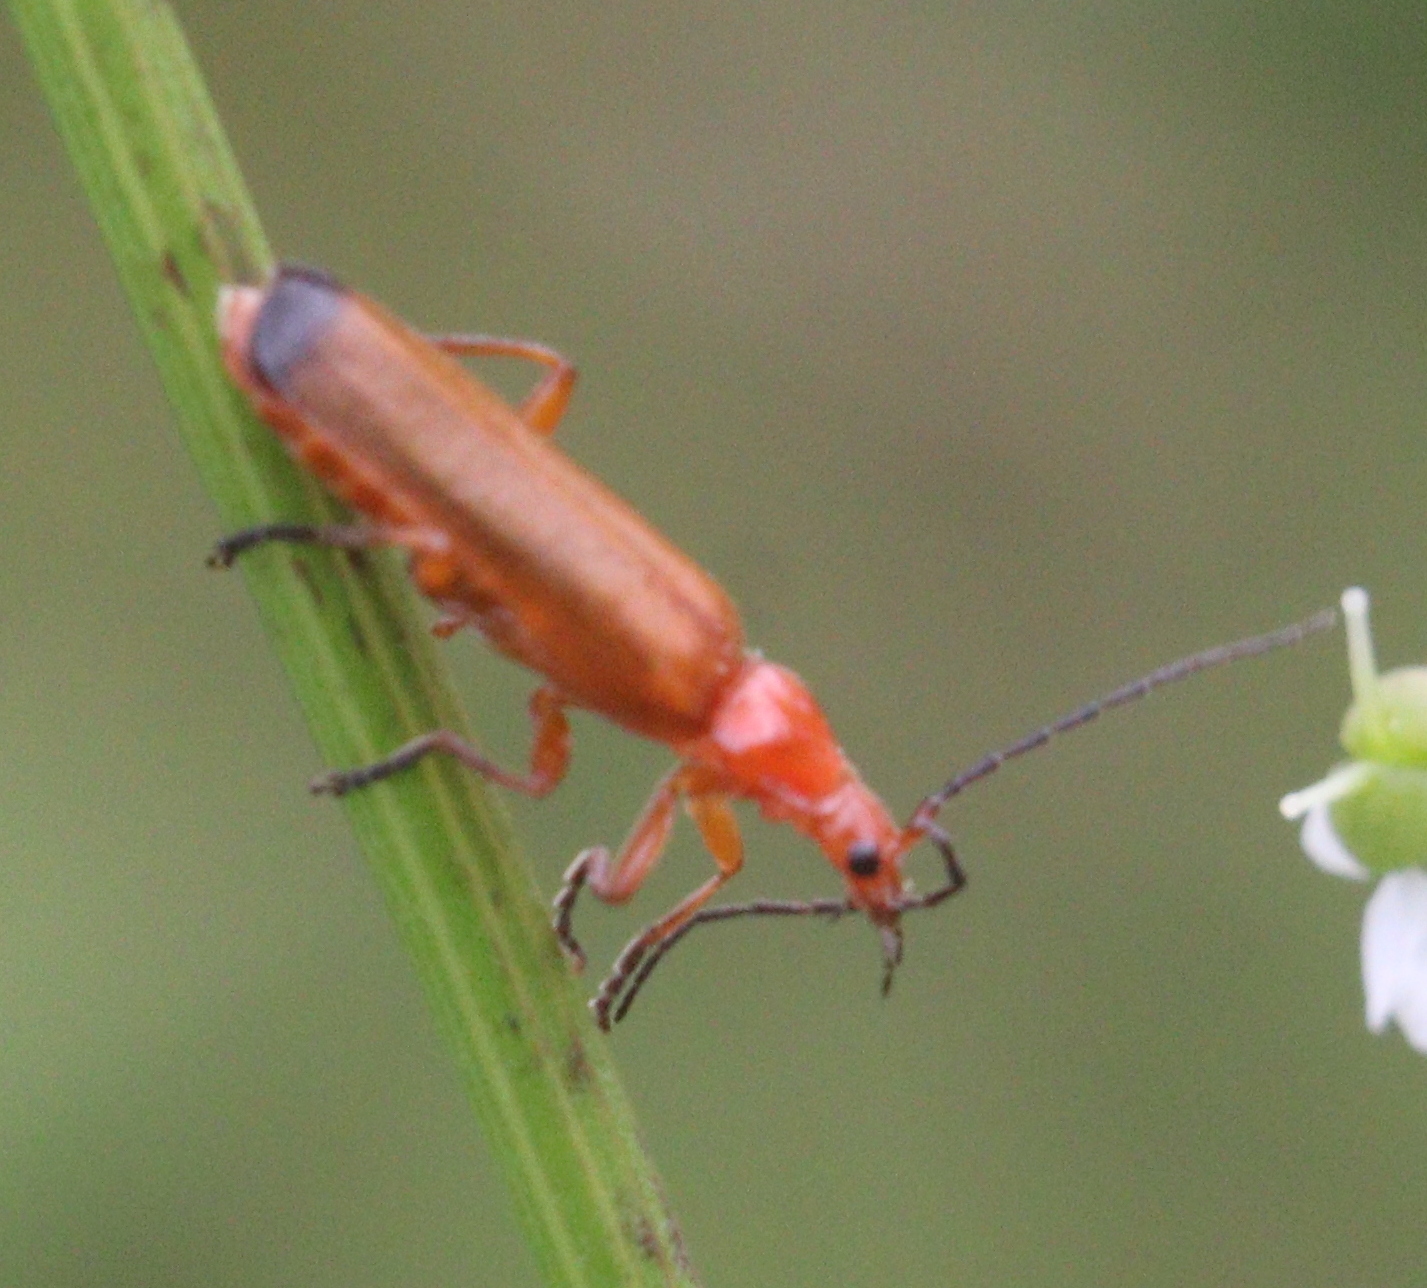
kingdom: Animalia
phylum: Arthropoda
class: Insecta
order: Coleoptera
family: Cantharidae
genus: Rhagonycha
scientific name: Rhagonycha fulva
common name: Common red soldier beetle
